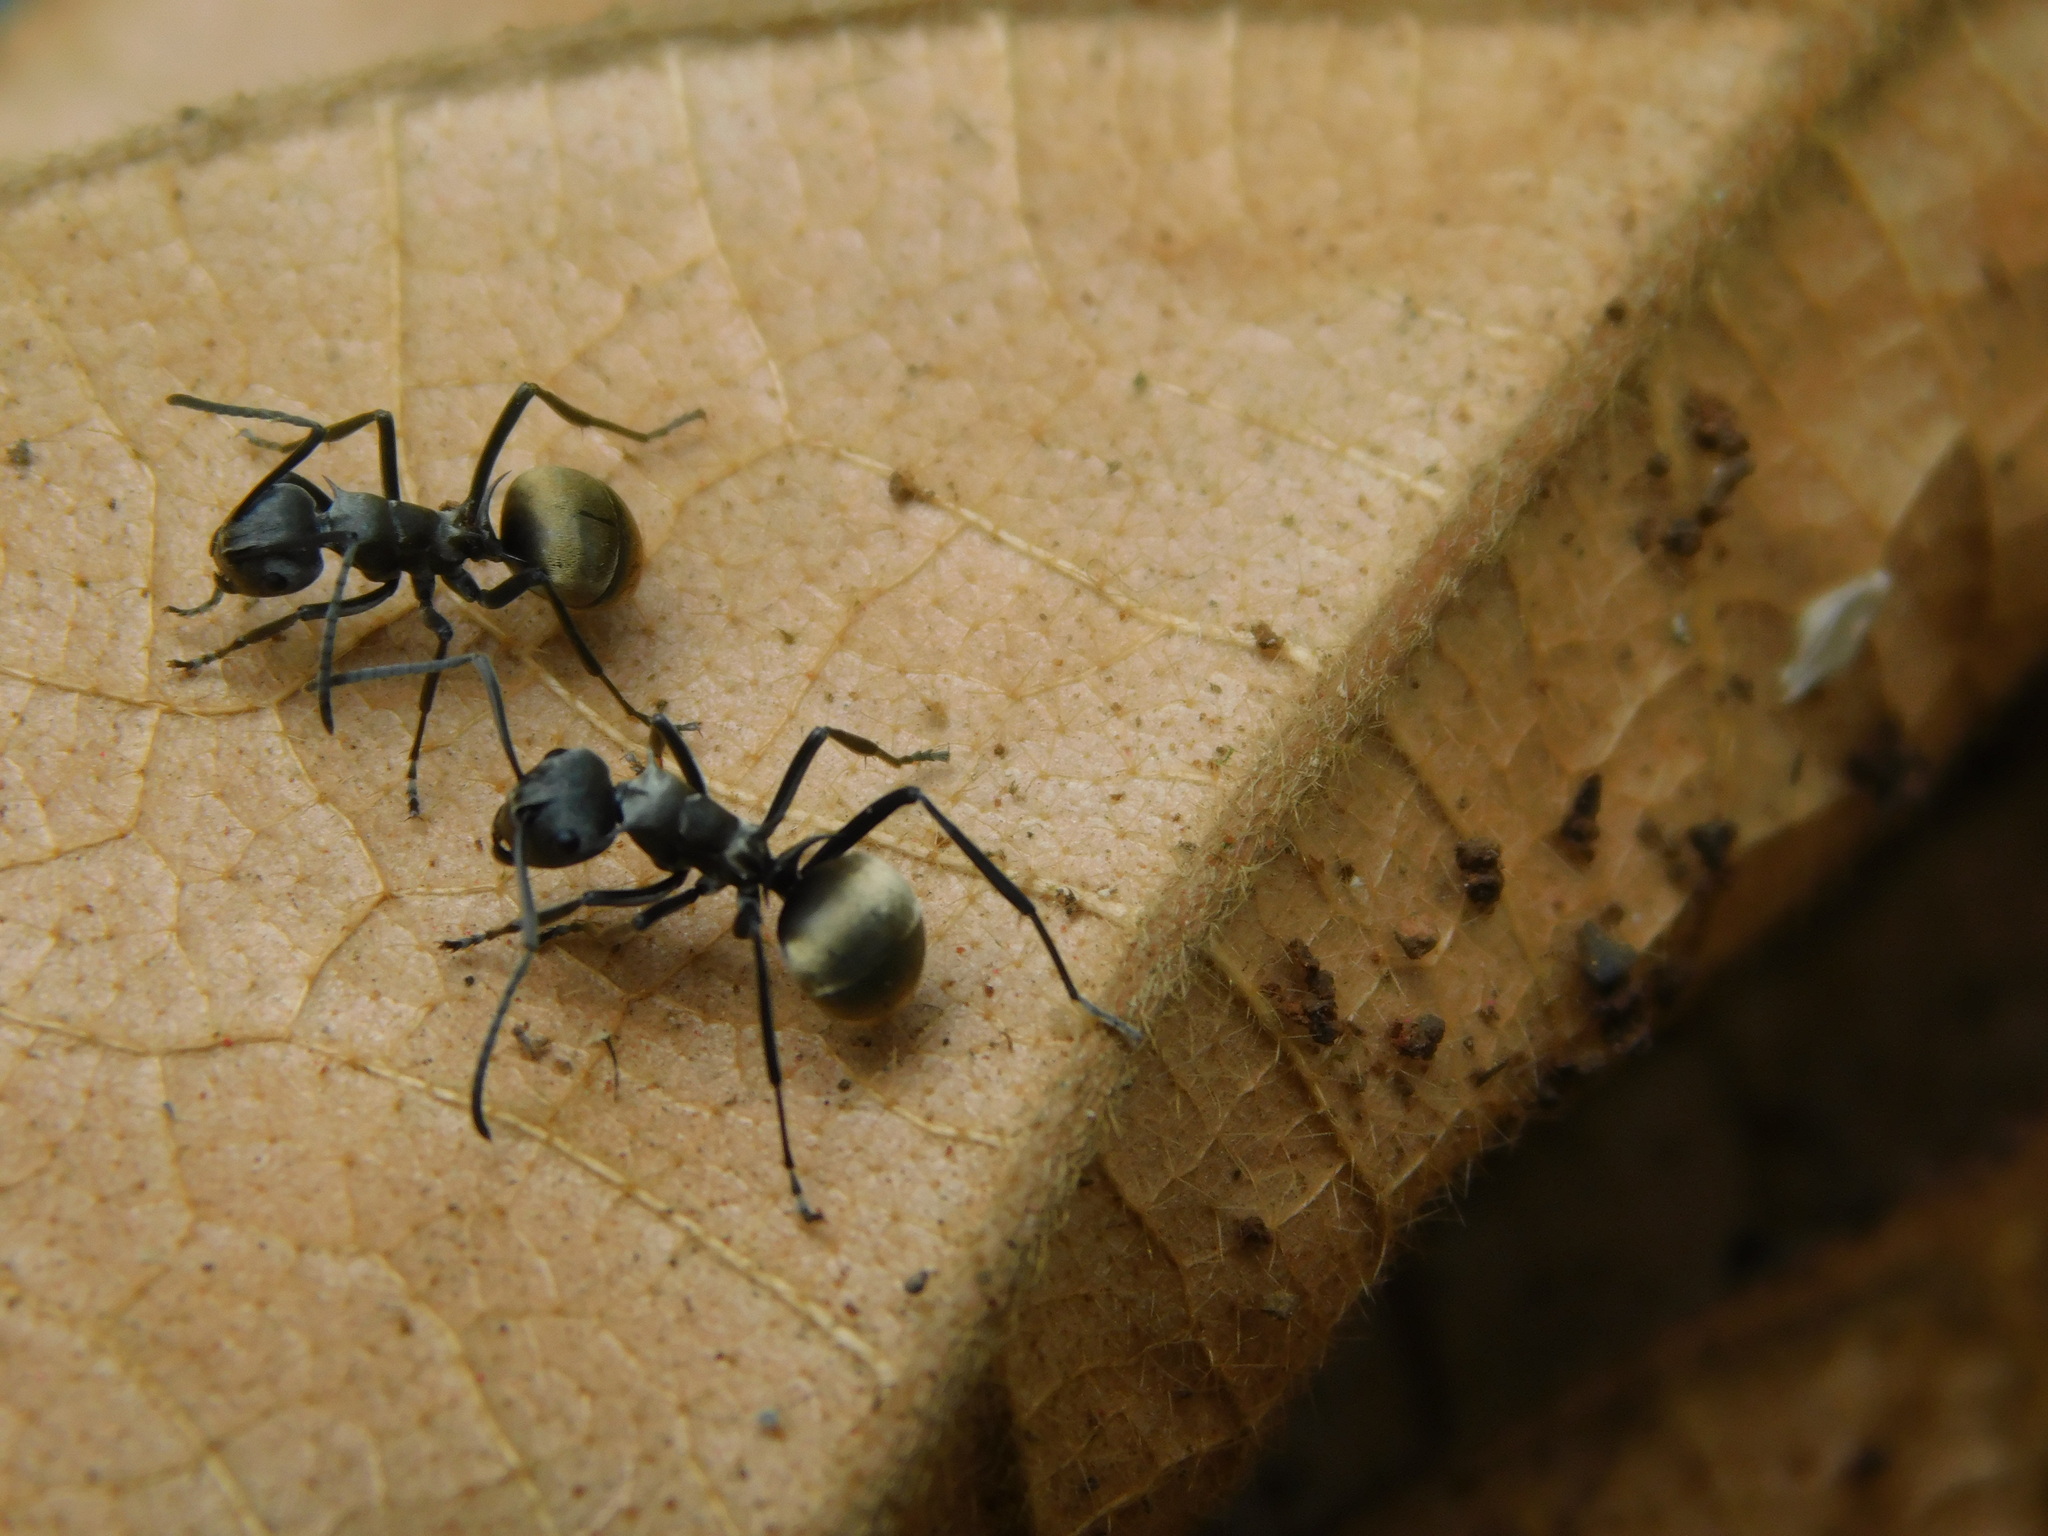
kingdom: Animalia
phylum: Arthropoda
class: Insecta
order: Hymenoptera
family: Formicidae
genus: Polyrhachis
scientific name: Polyrhachis dives
